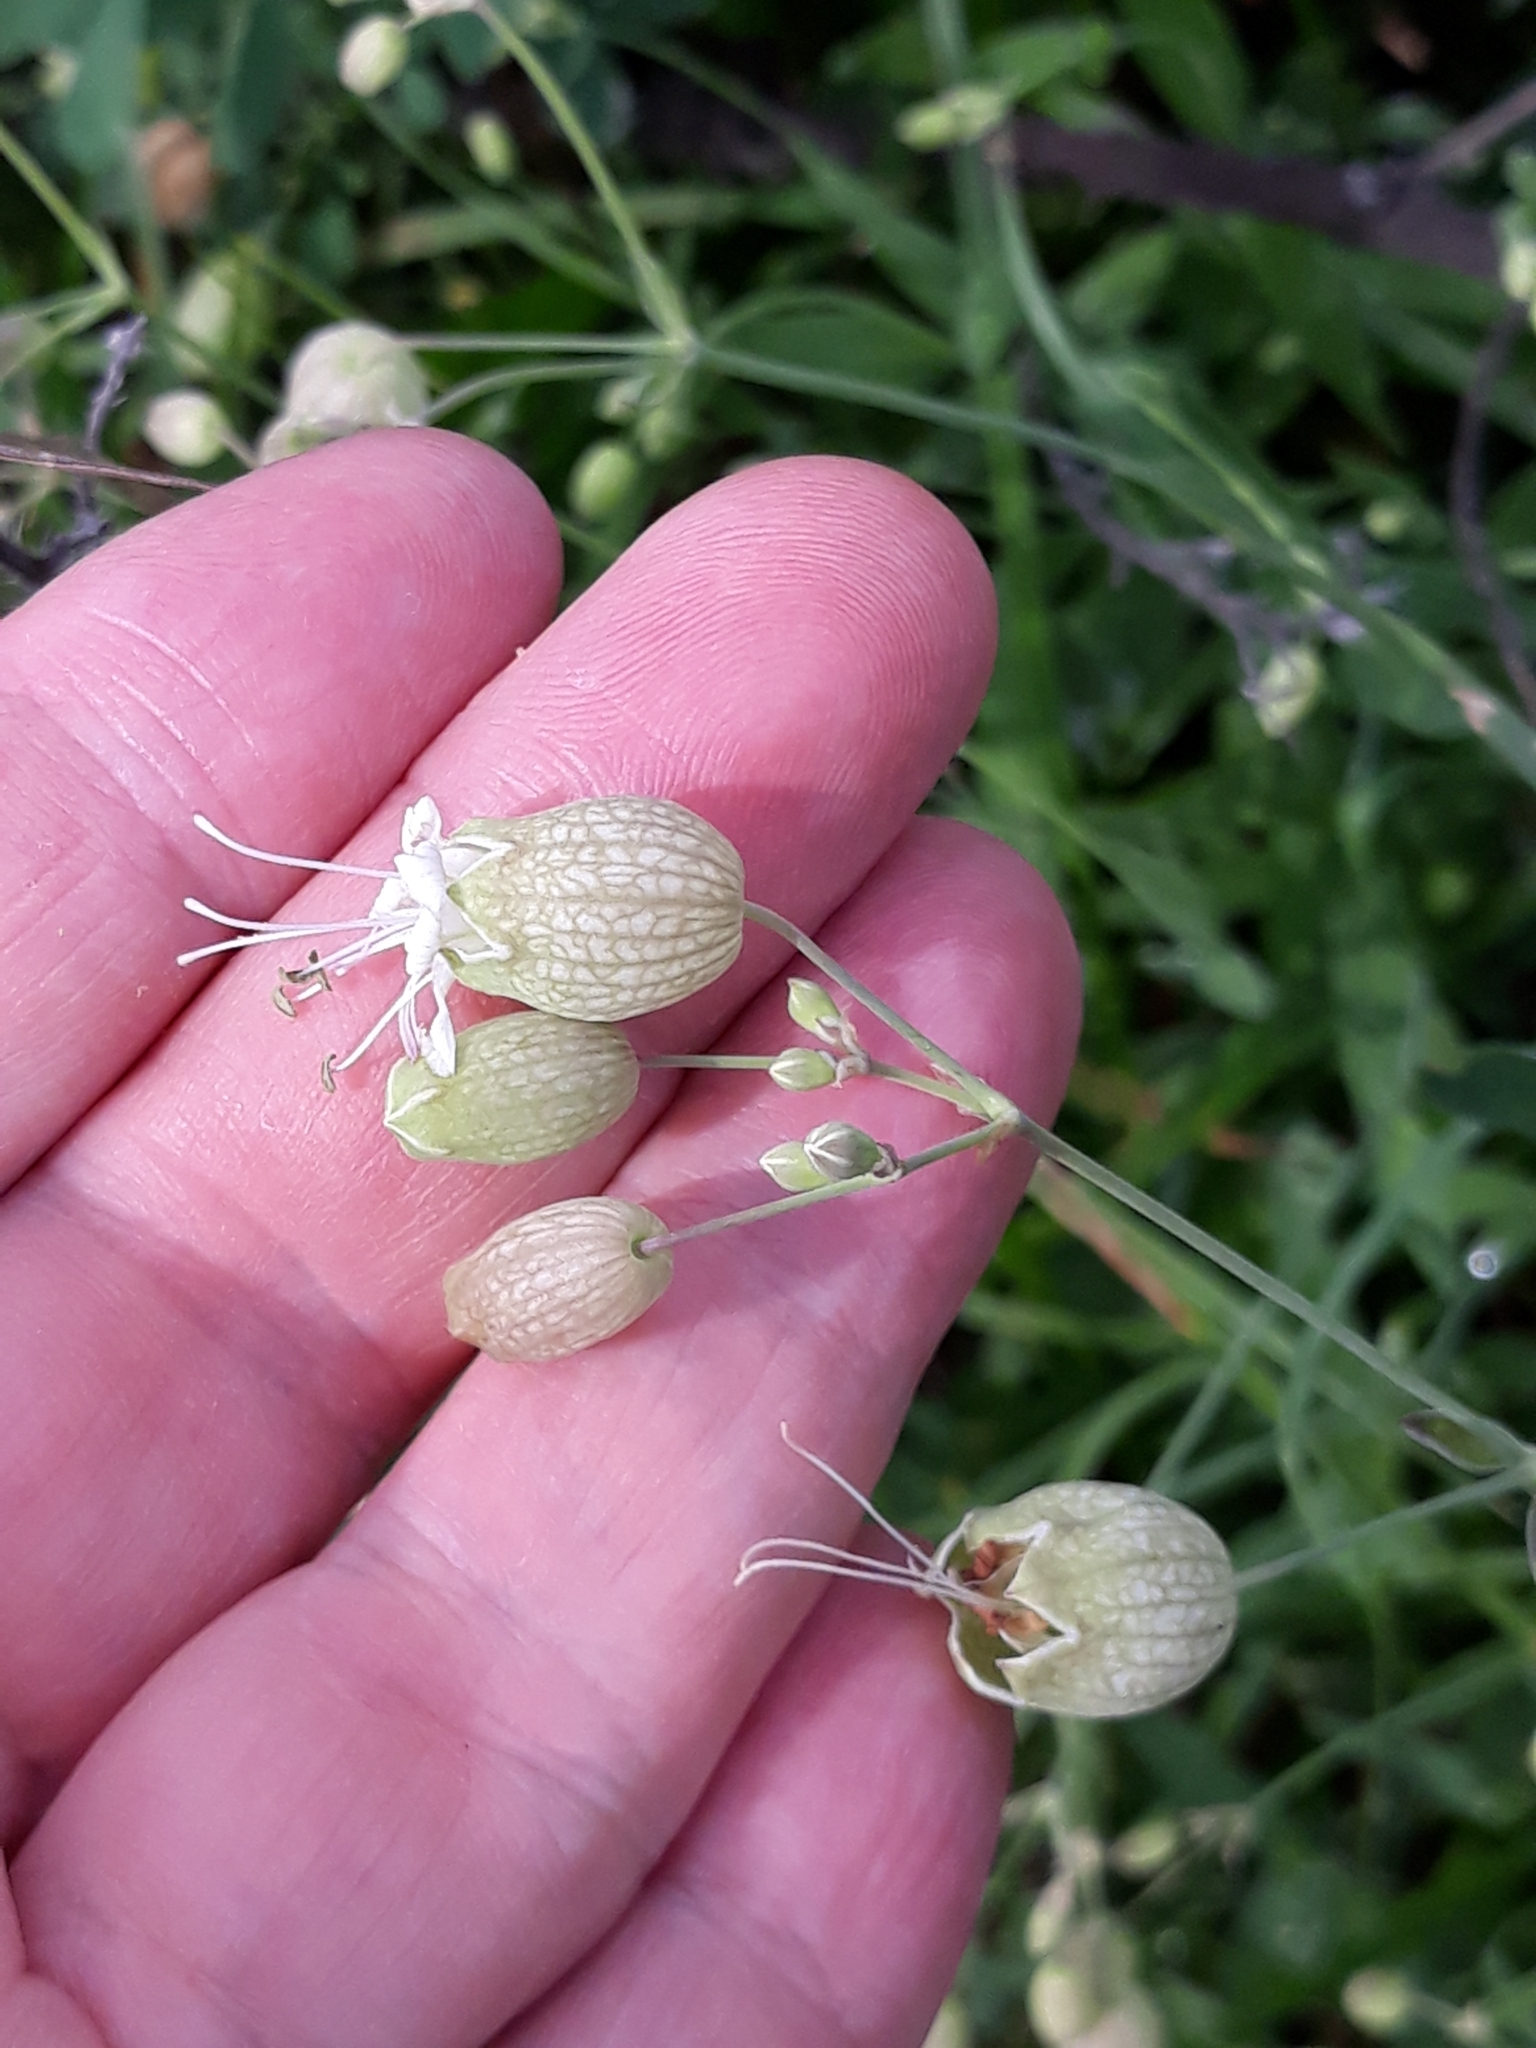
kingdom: Plantae
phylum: Tracheophyta
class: Magnoliopsida
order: Caryophyllales
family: Caryophyllaceae
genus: Silene
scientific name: Silene vulgaris
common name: Bladder campion
